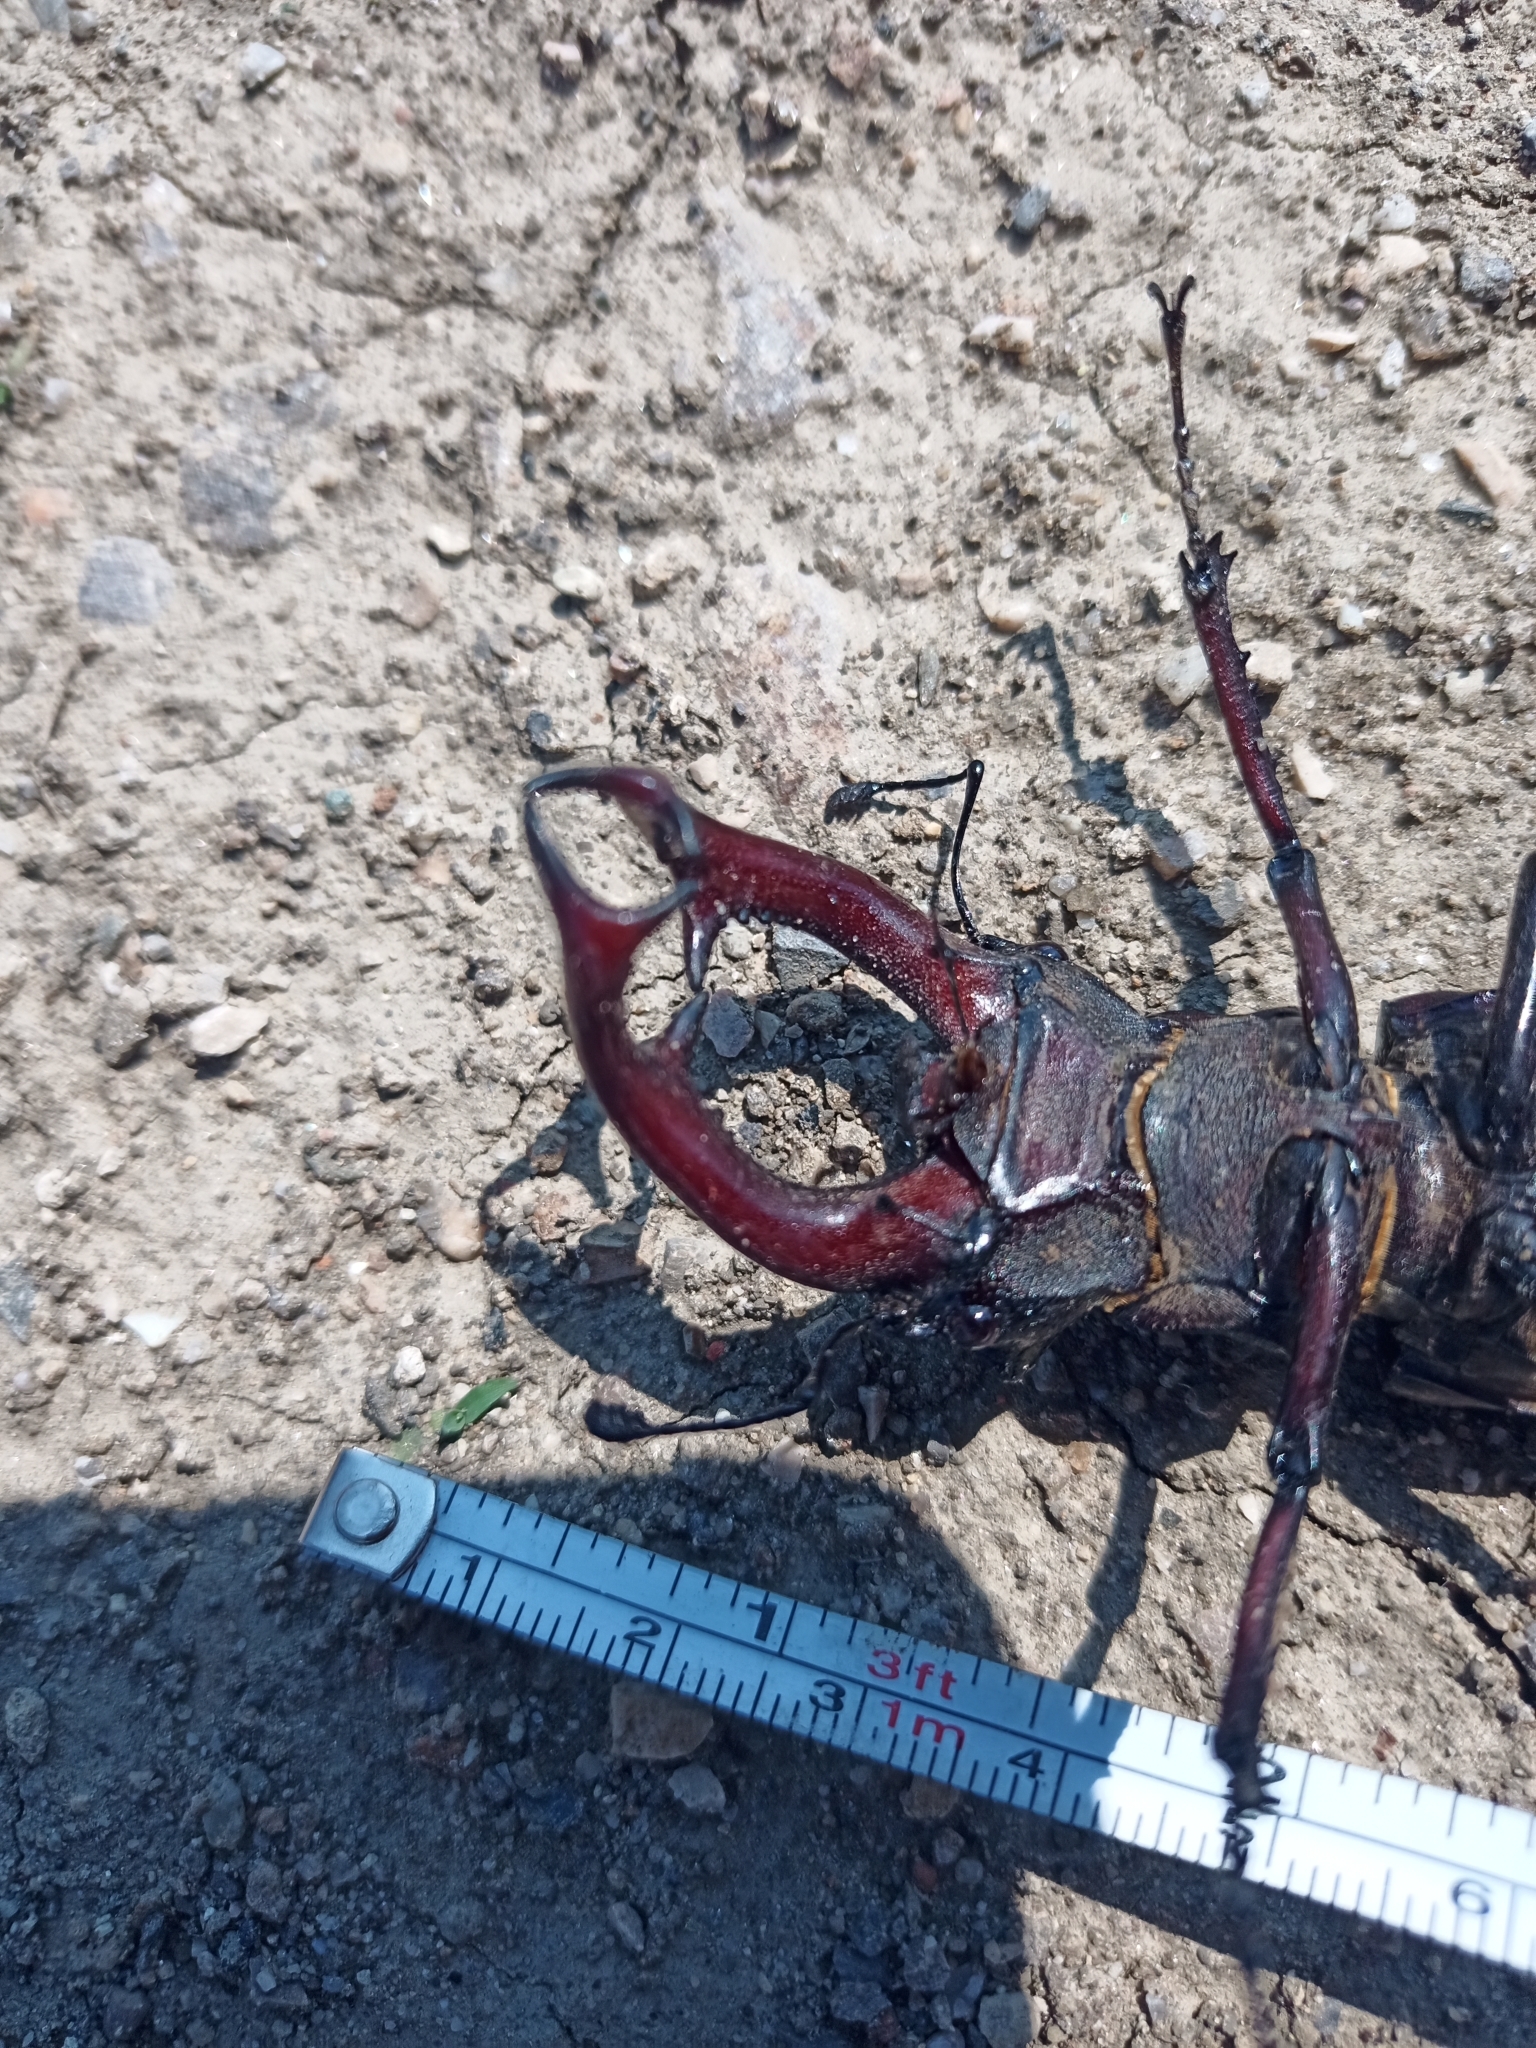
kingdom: Animalia
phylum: Arthropoda
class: Insecta
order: Coleoptera
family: Lucanidae
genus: Lucanus
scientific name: Lucanus cervus
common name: Stag beetle
